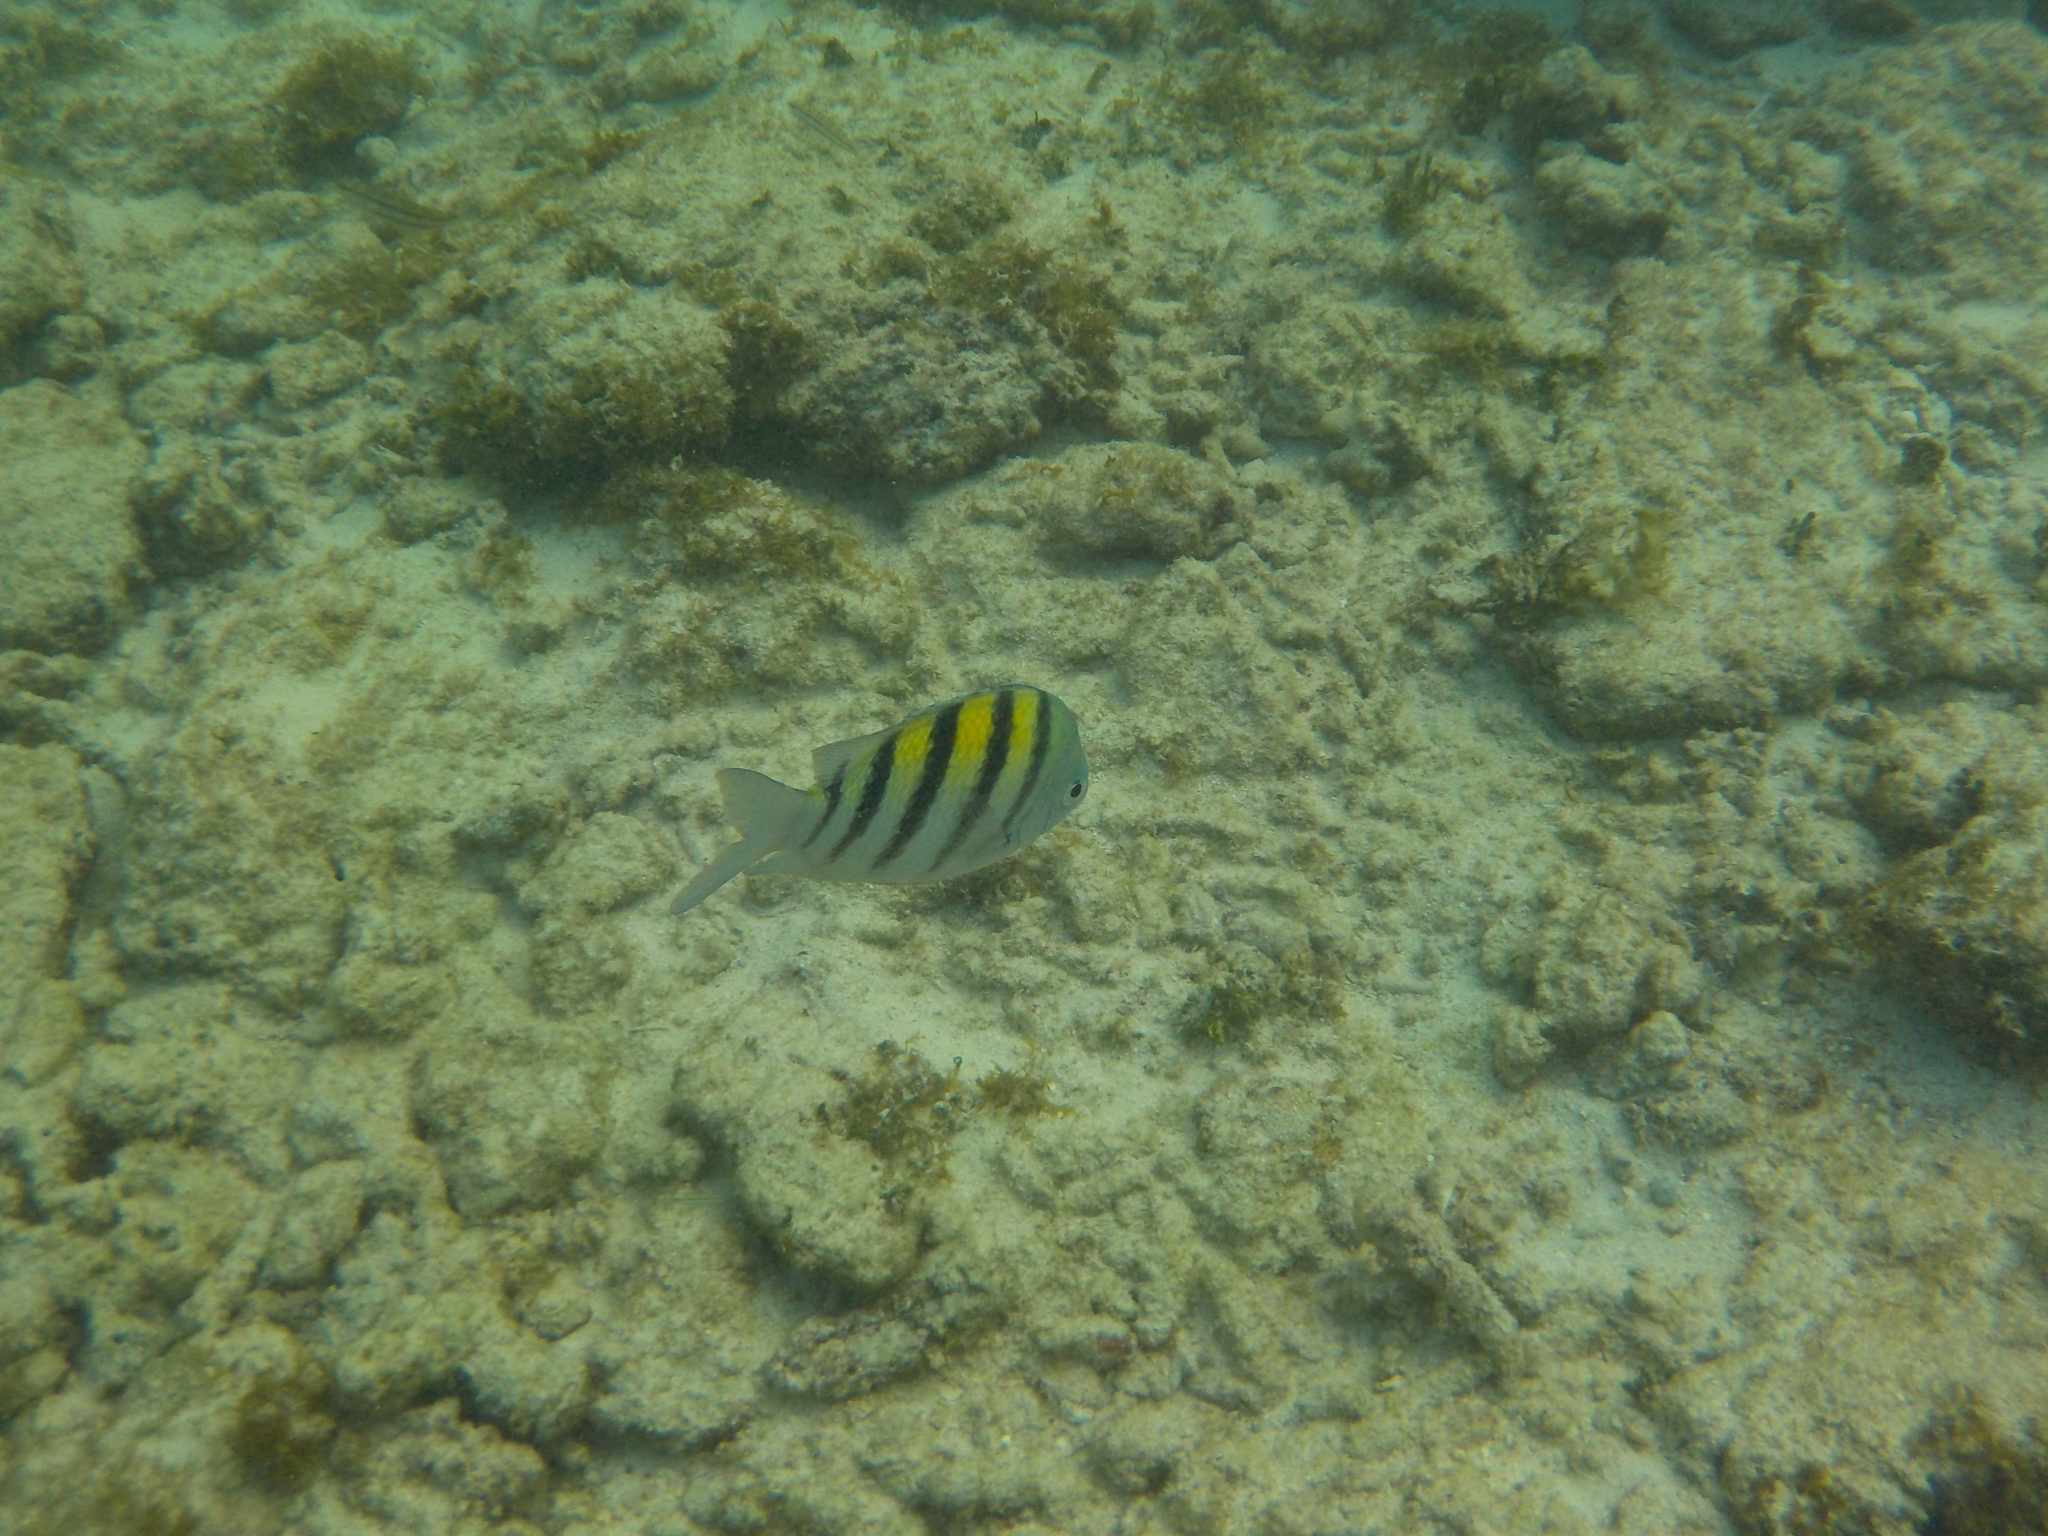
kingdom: Animalia
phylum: Chordata
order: Perciformes
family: Pomacentridae
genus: Abudefduf
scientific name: Abudefduf saxatilis
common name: Sergeant major
